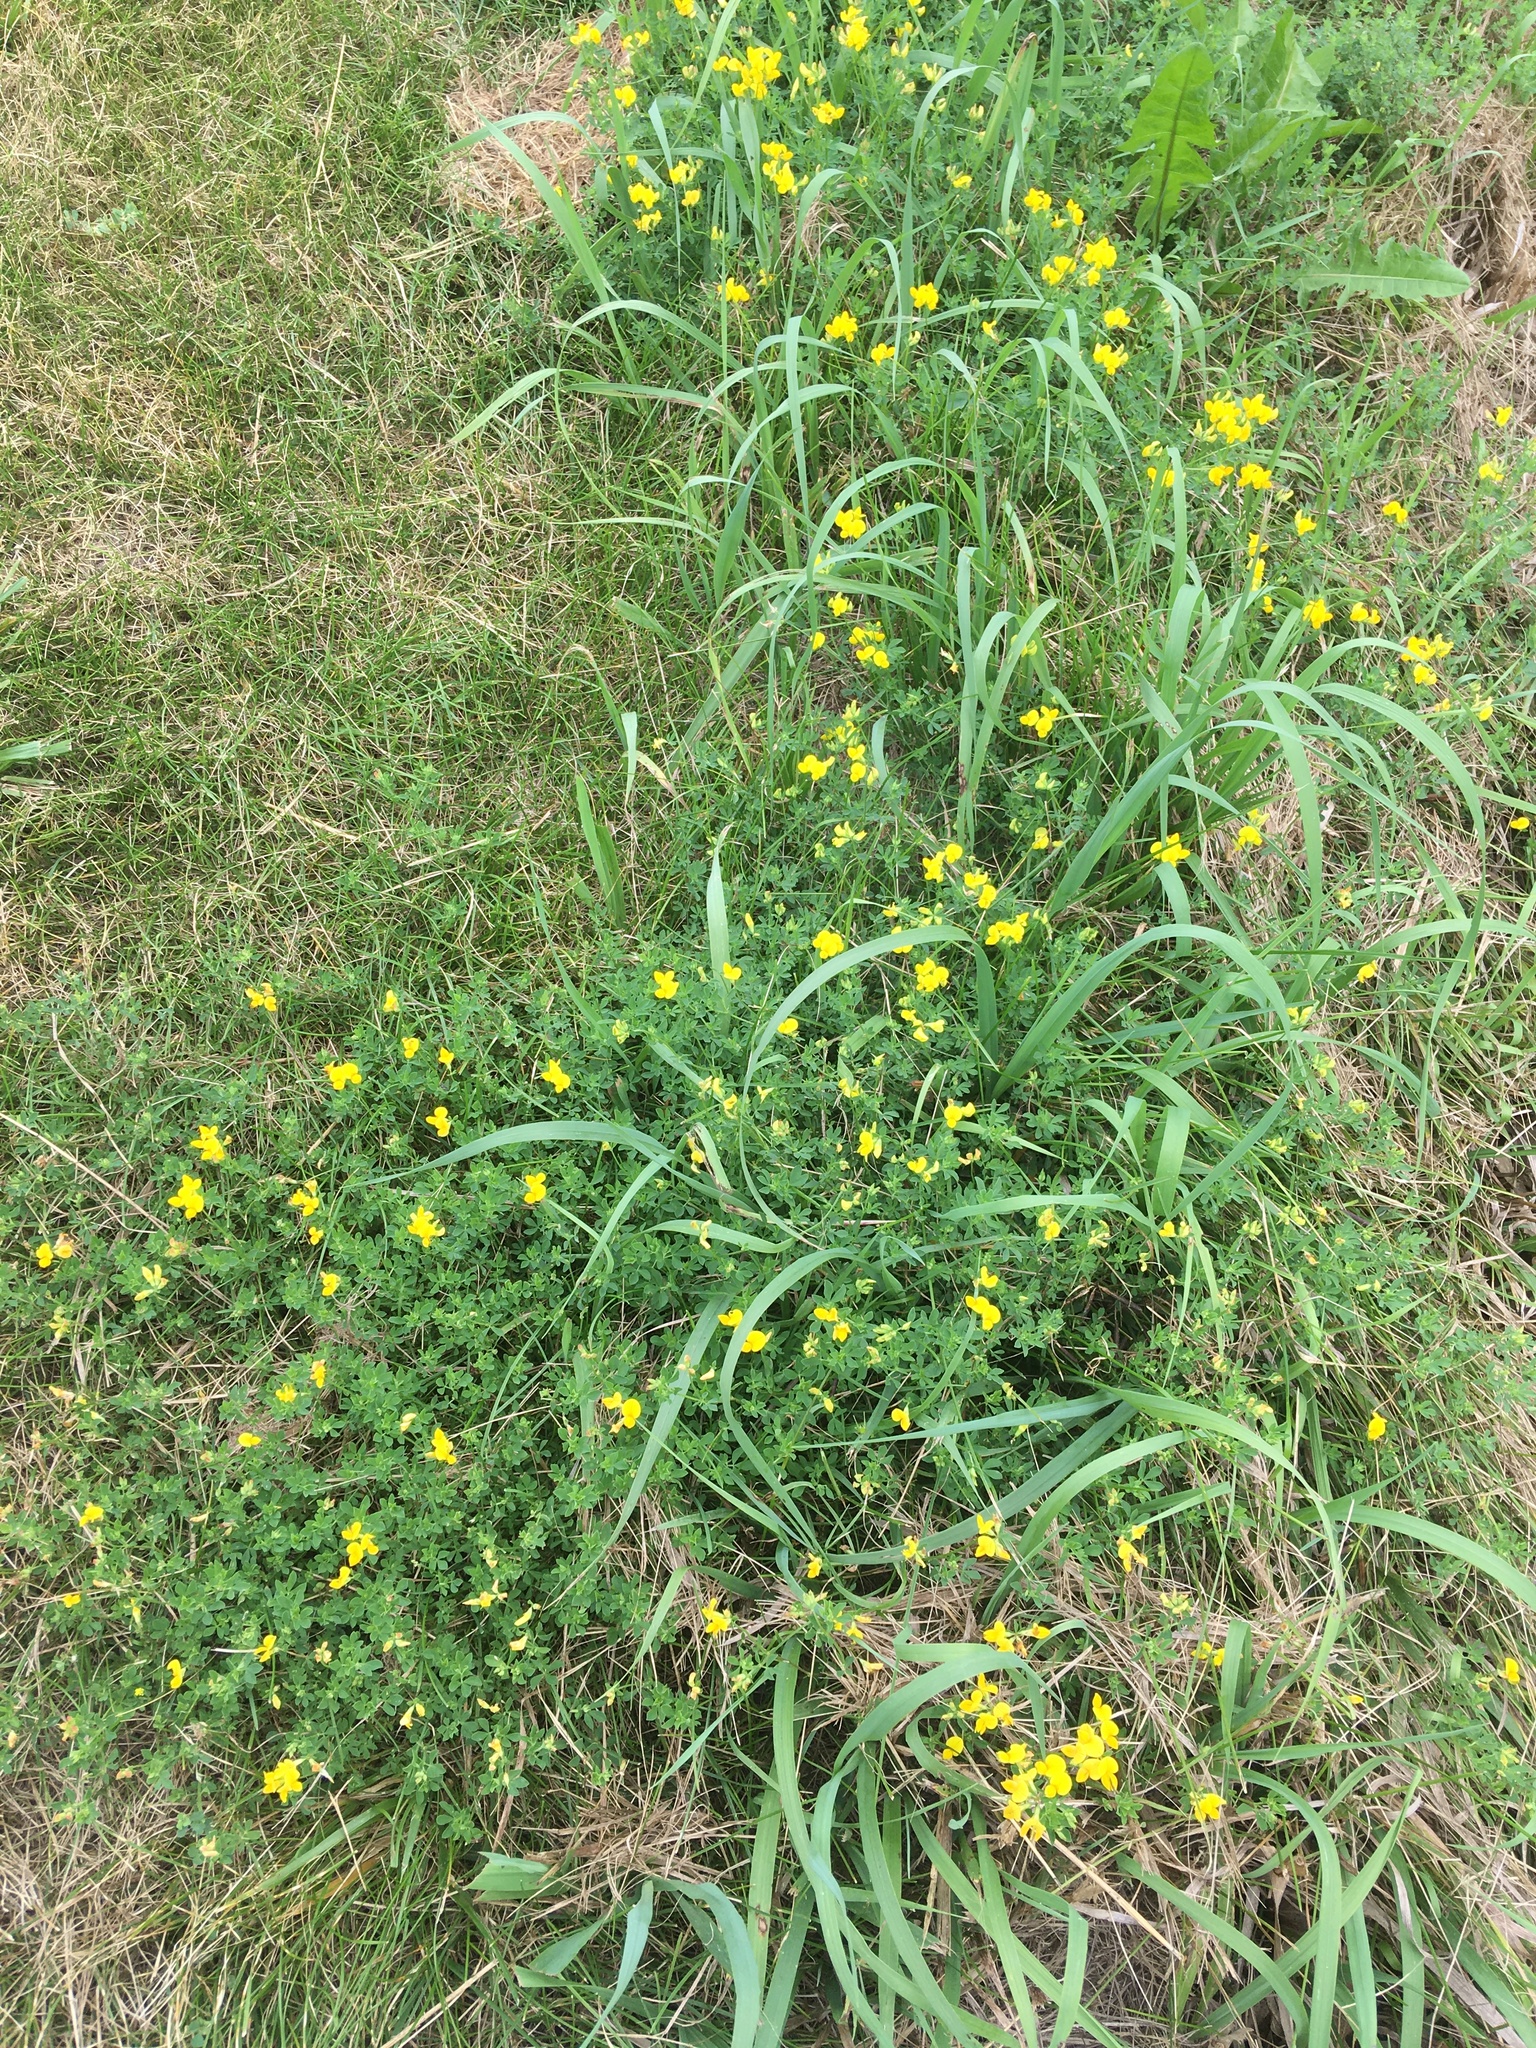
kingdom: Plantae
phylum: Tracheophyta
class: Magnoliopsida
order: Fabales
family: Fabaceae
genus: Lotus
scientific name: Lotus corniculatus
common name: Common bird's-foot-trefoil
